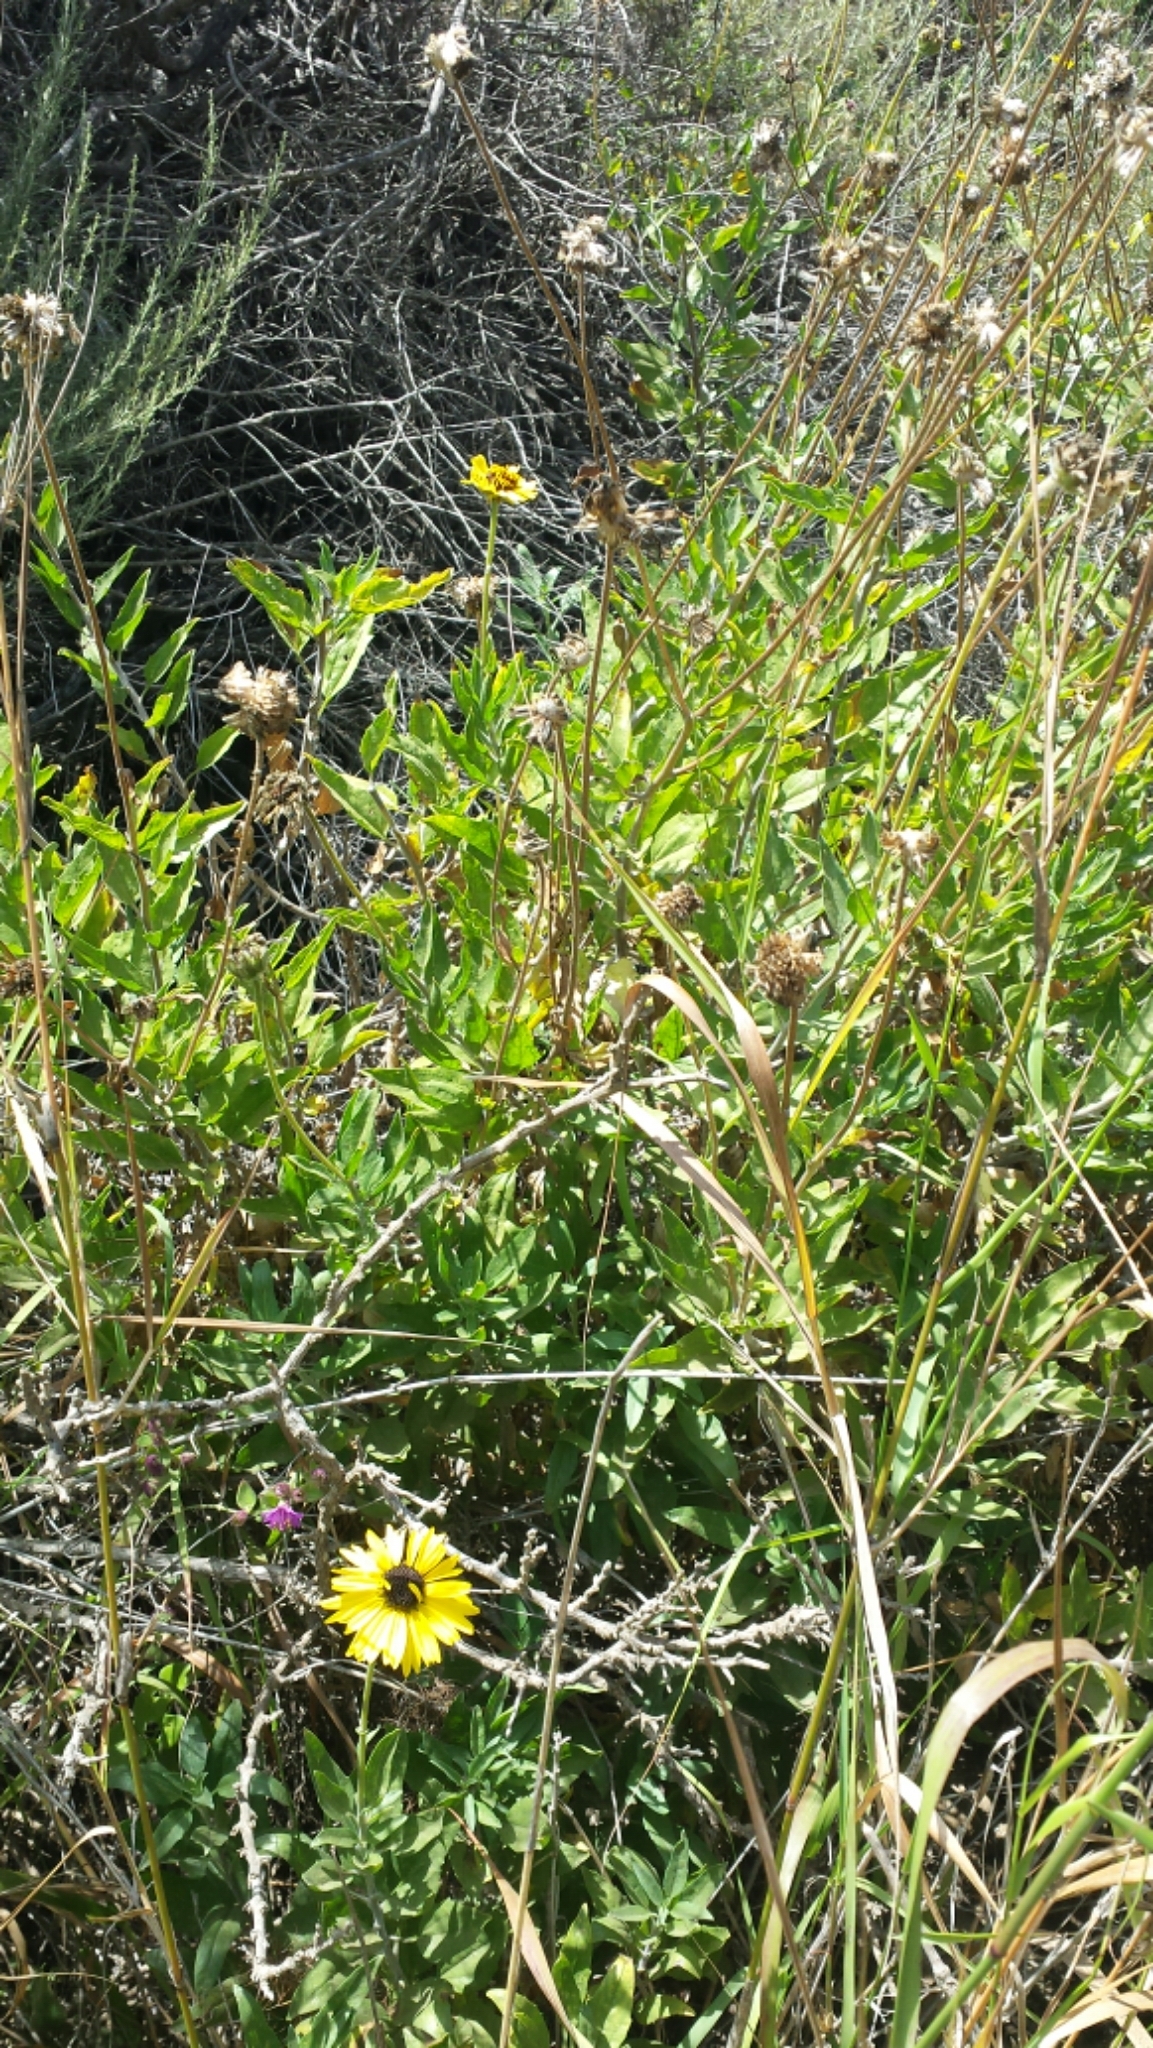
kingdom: Plantae
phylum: Tracheophyta
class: Magnoliopsida
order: Asterales
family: Asteraceae
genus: Encelia
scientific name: Encelia californica
